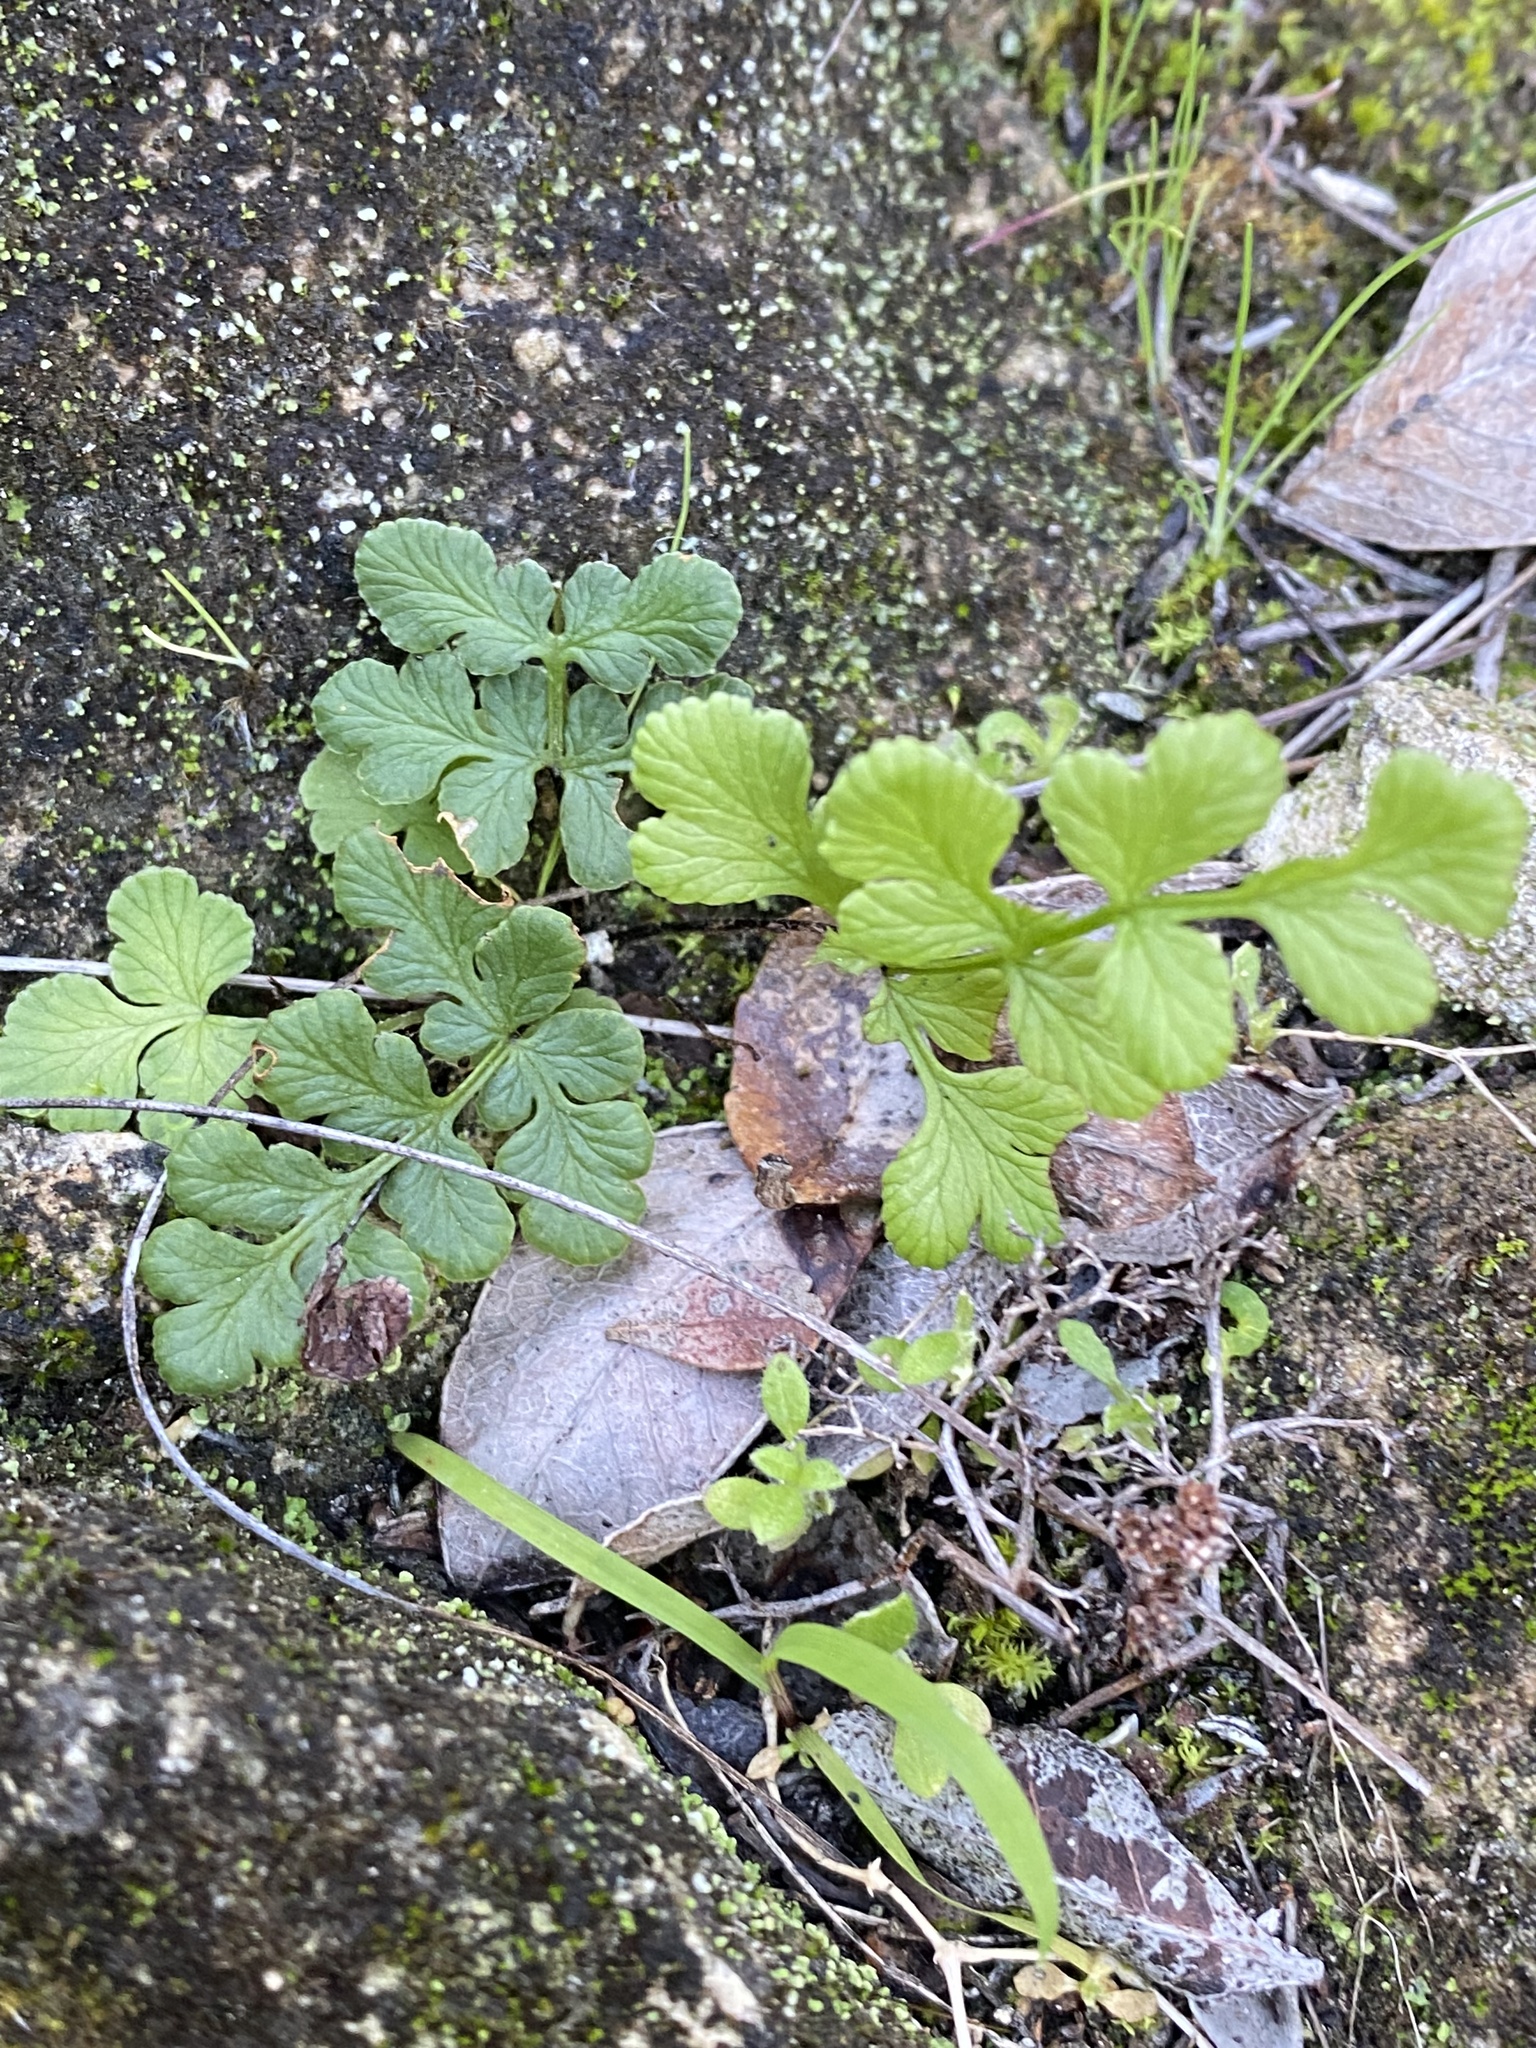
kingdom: Plantae
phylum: Tracheophyta
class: Polypodiopsida
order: Polypodiales
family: Pteridaceae
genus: Cheilanthes
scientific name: Cheilanthes capensis
